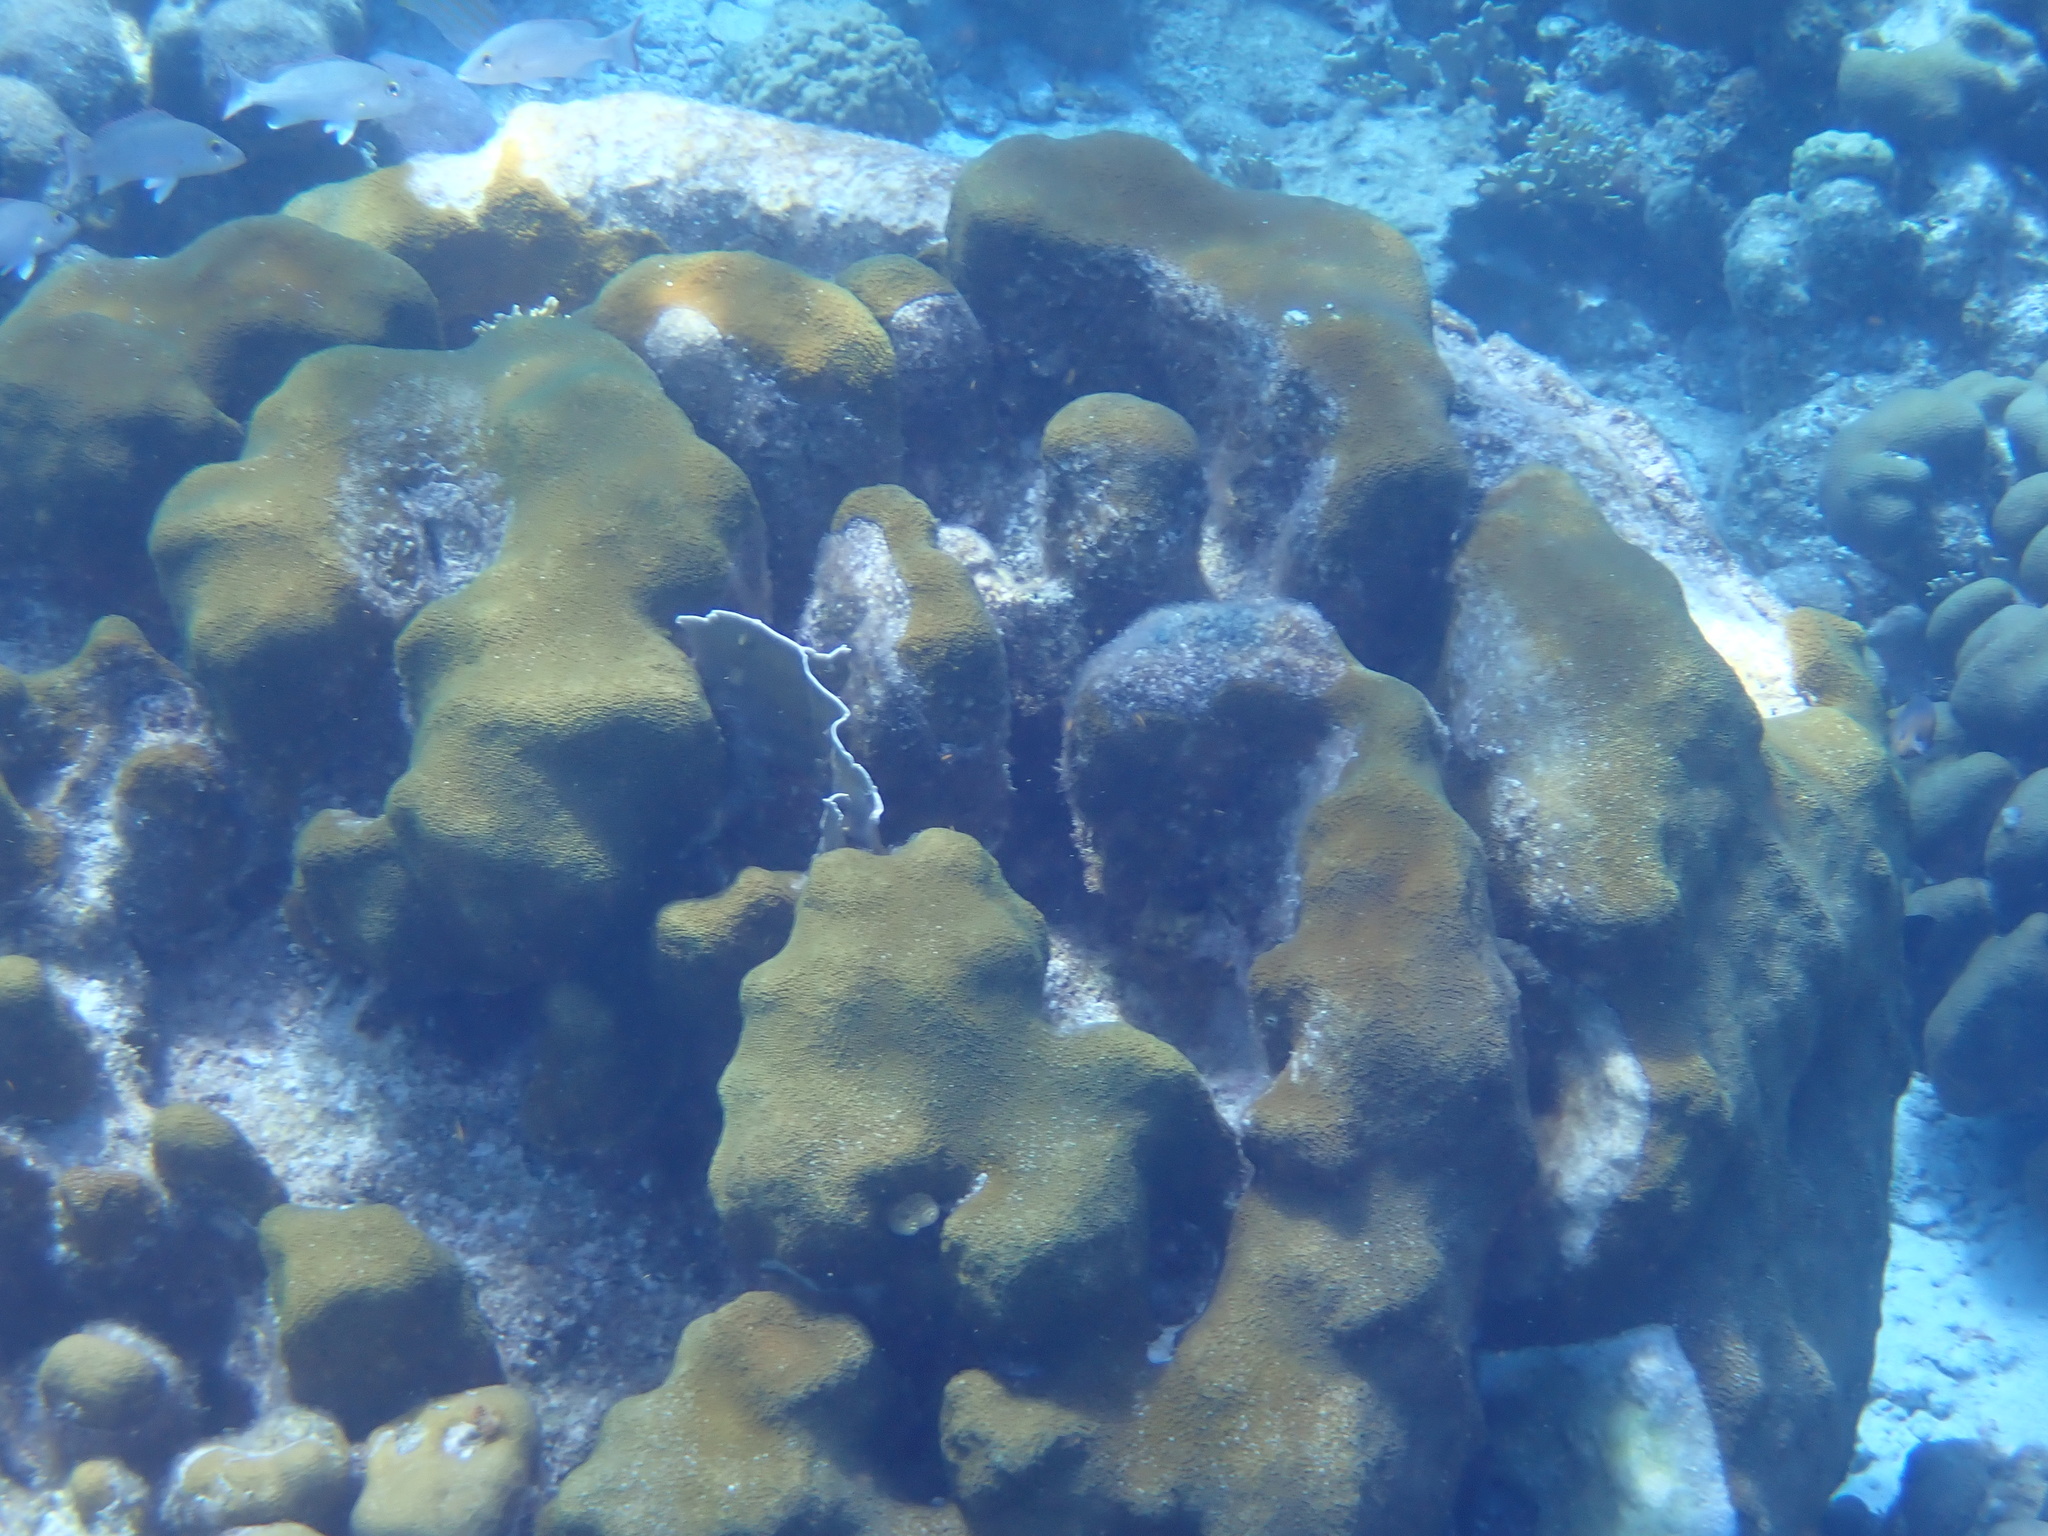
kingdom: Animalia
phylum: Cnidaria
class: Anthozoa
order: Scleractinia
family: Merulinidae
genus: Orbicella
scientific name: Orbicella annularis
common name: Boulder star coral
